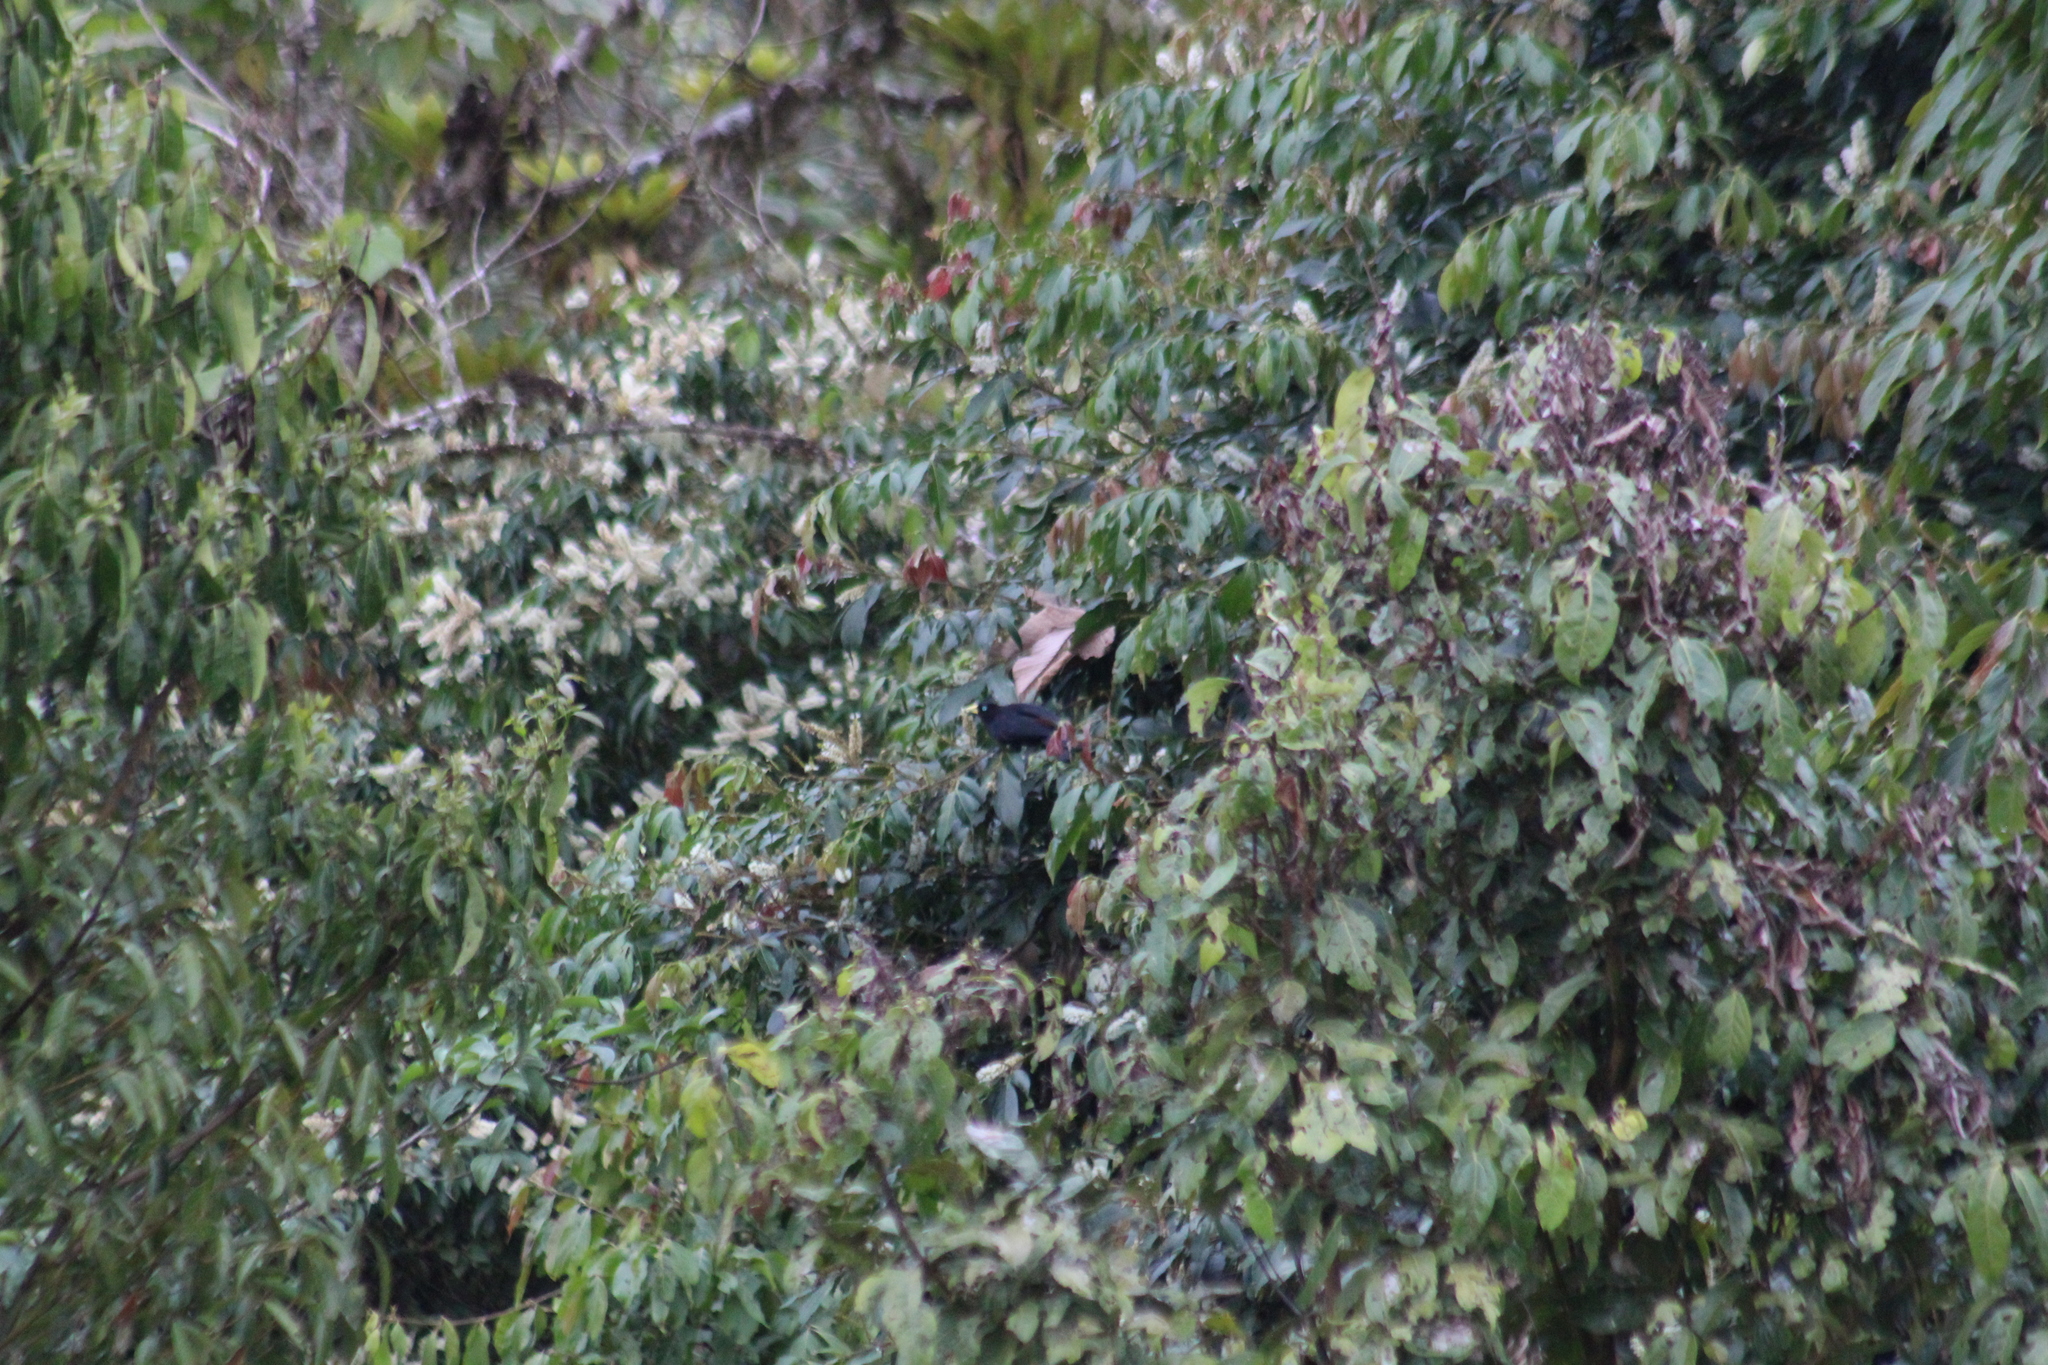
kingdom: Animalia
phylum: Chordata
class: Aves
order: Passeriformes
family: Icteridae
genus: Cacicus
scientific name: Cacicus uropygialis
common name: Scarlet-rumped cacique
